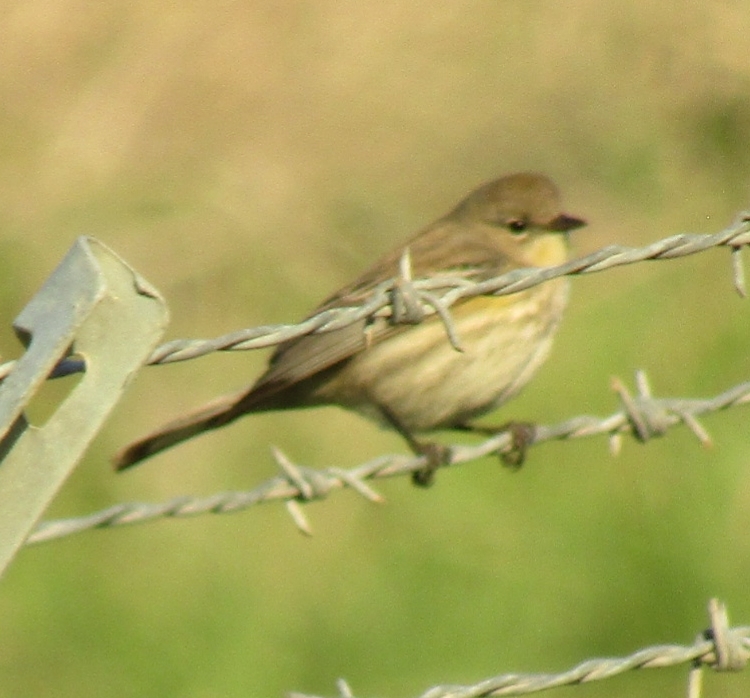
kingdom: Animalia
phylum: Chordata
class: Aves
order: Passeriformes
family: Parulidae
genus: Setophaga
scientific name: Setophaga coronata
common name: Myrtle warbler
